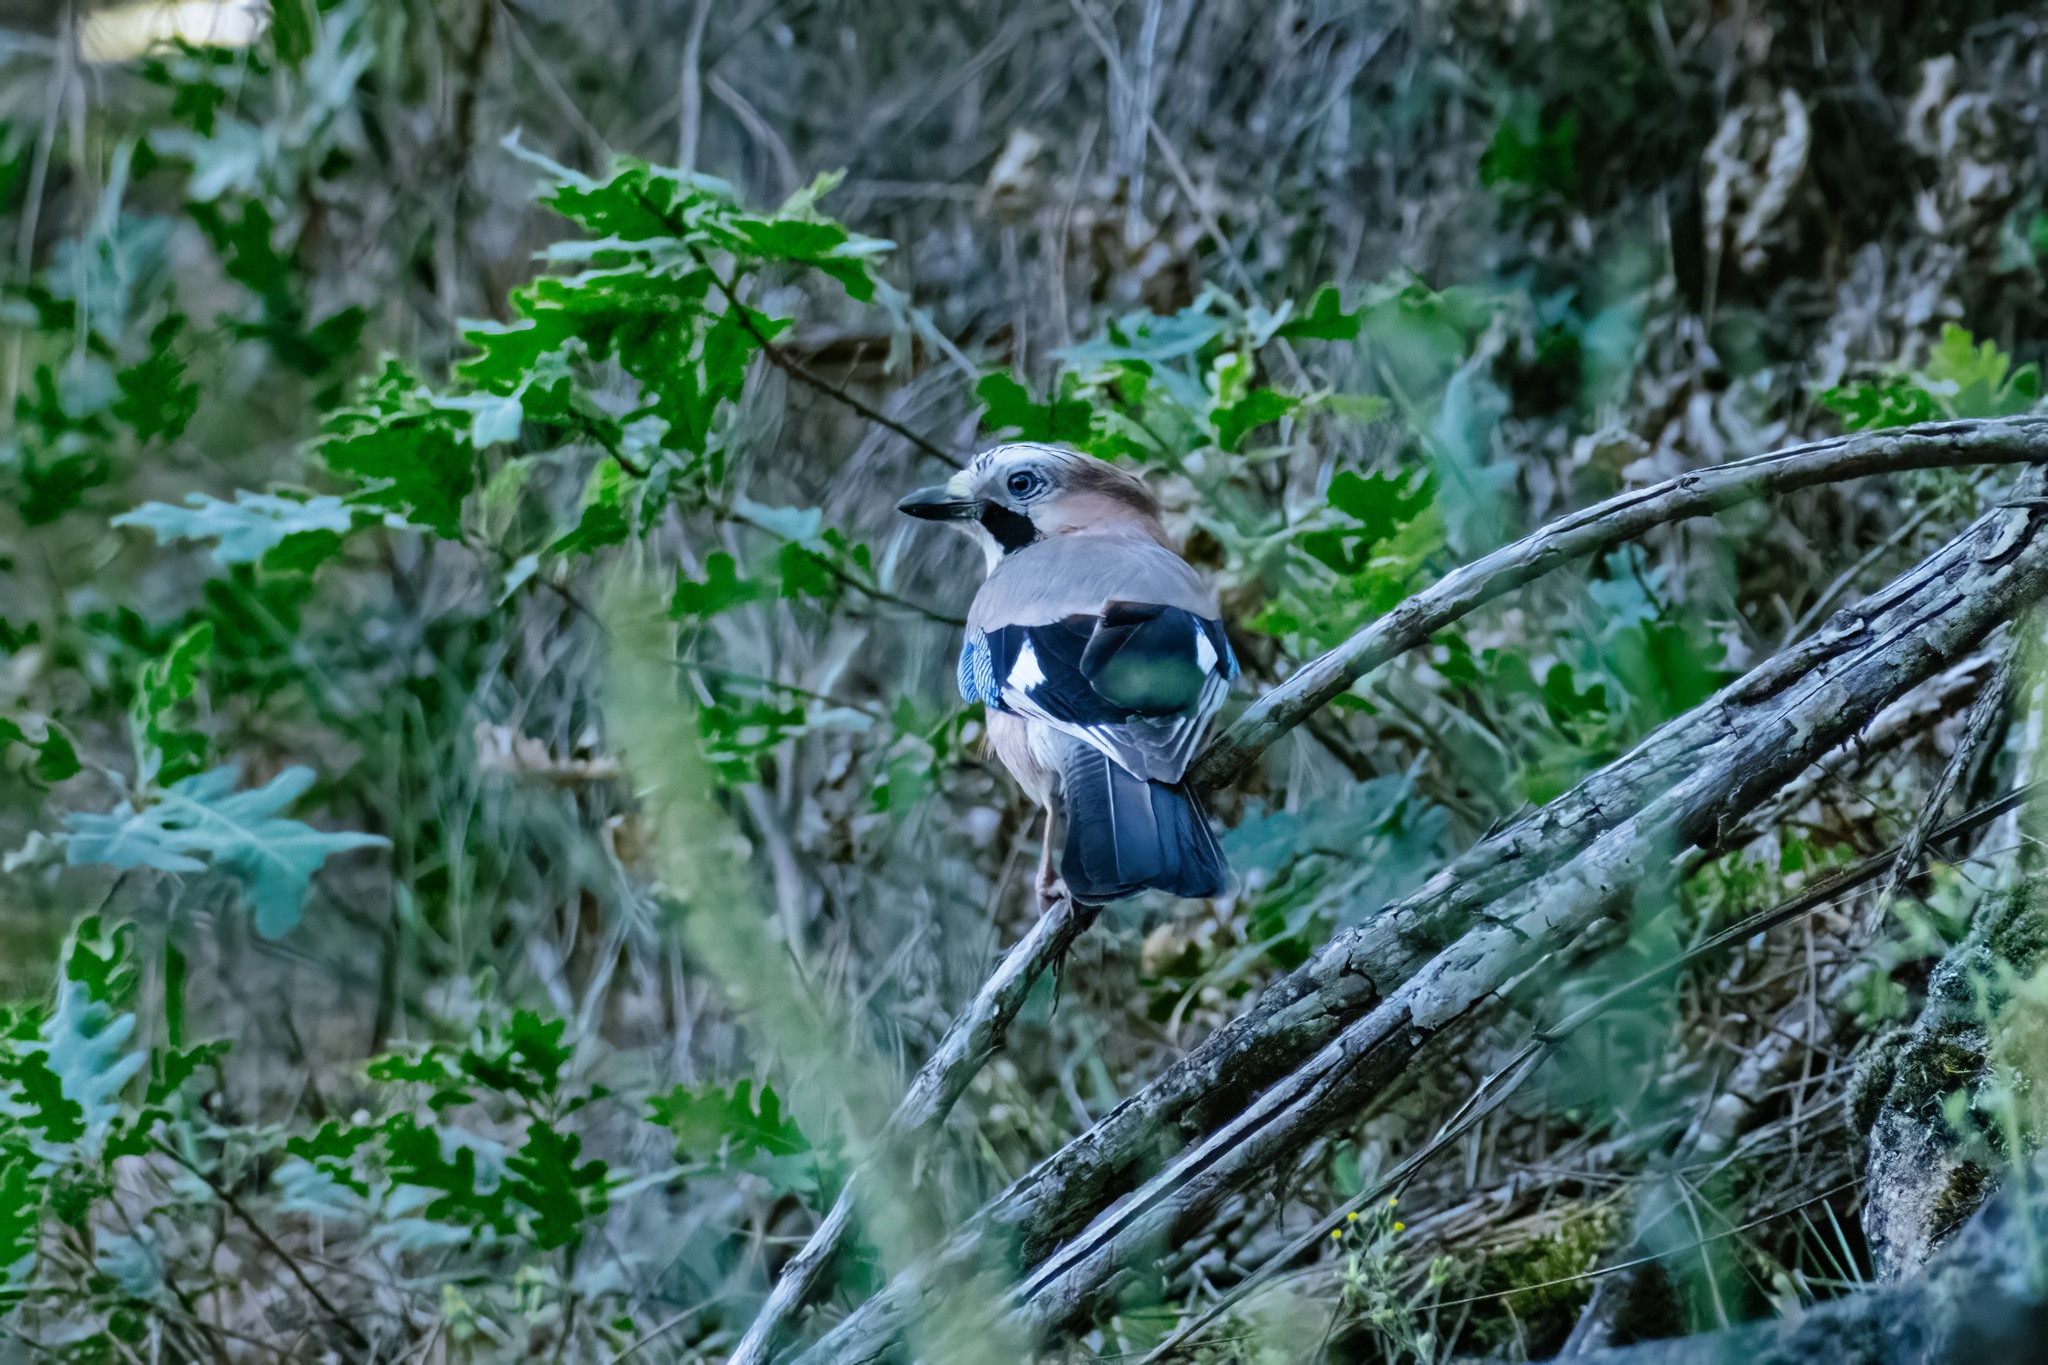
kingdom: Animalia
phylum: Chordata
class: Aves
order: Passeriformes
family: Corvidae
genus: Garrulus
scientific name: Garrulus glandarius
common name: Eurasian jay
